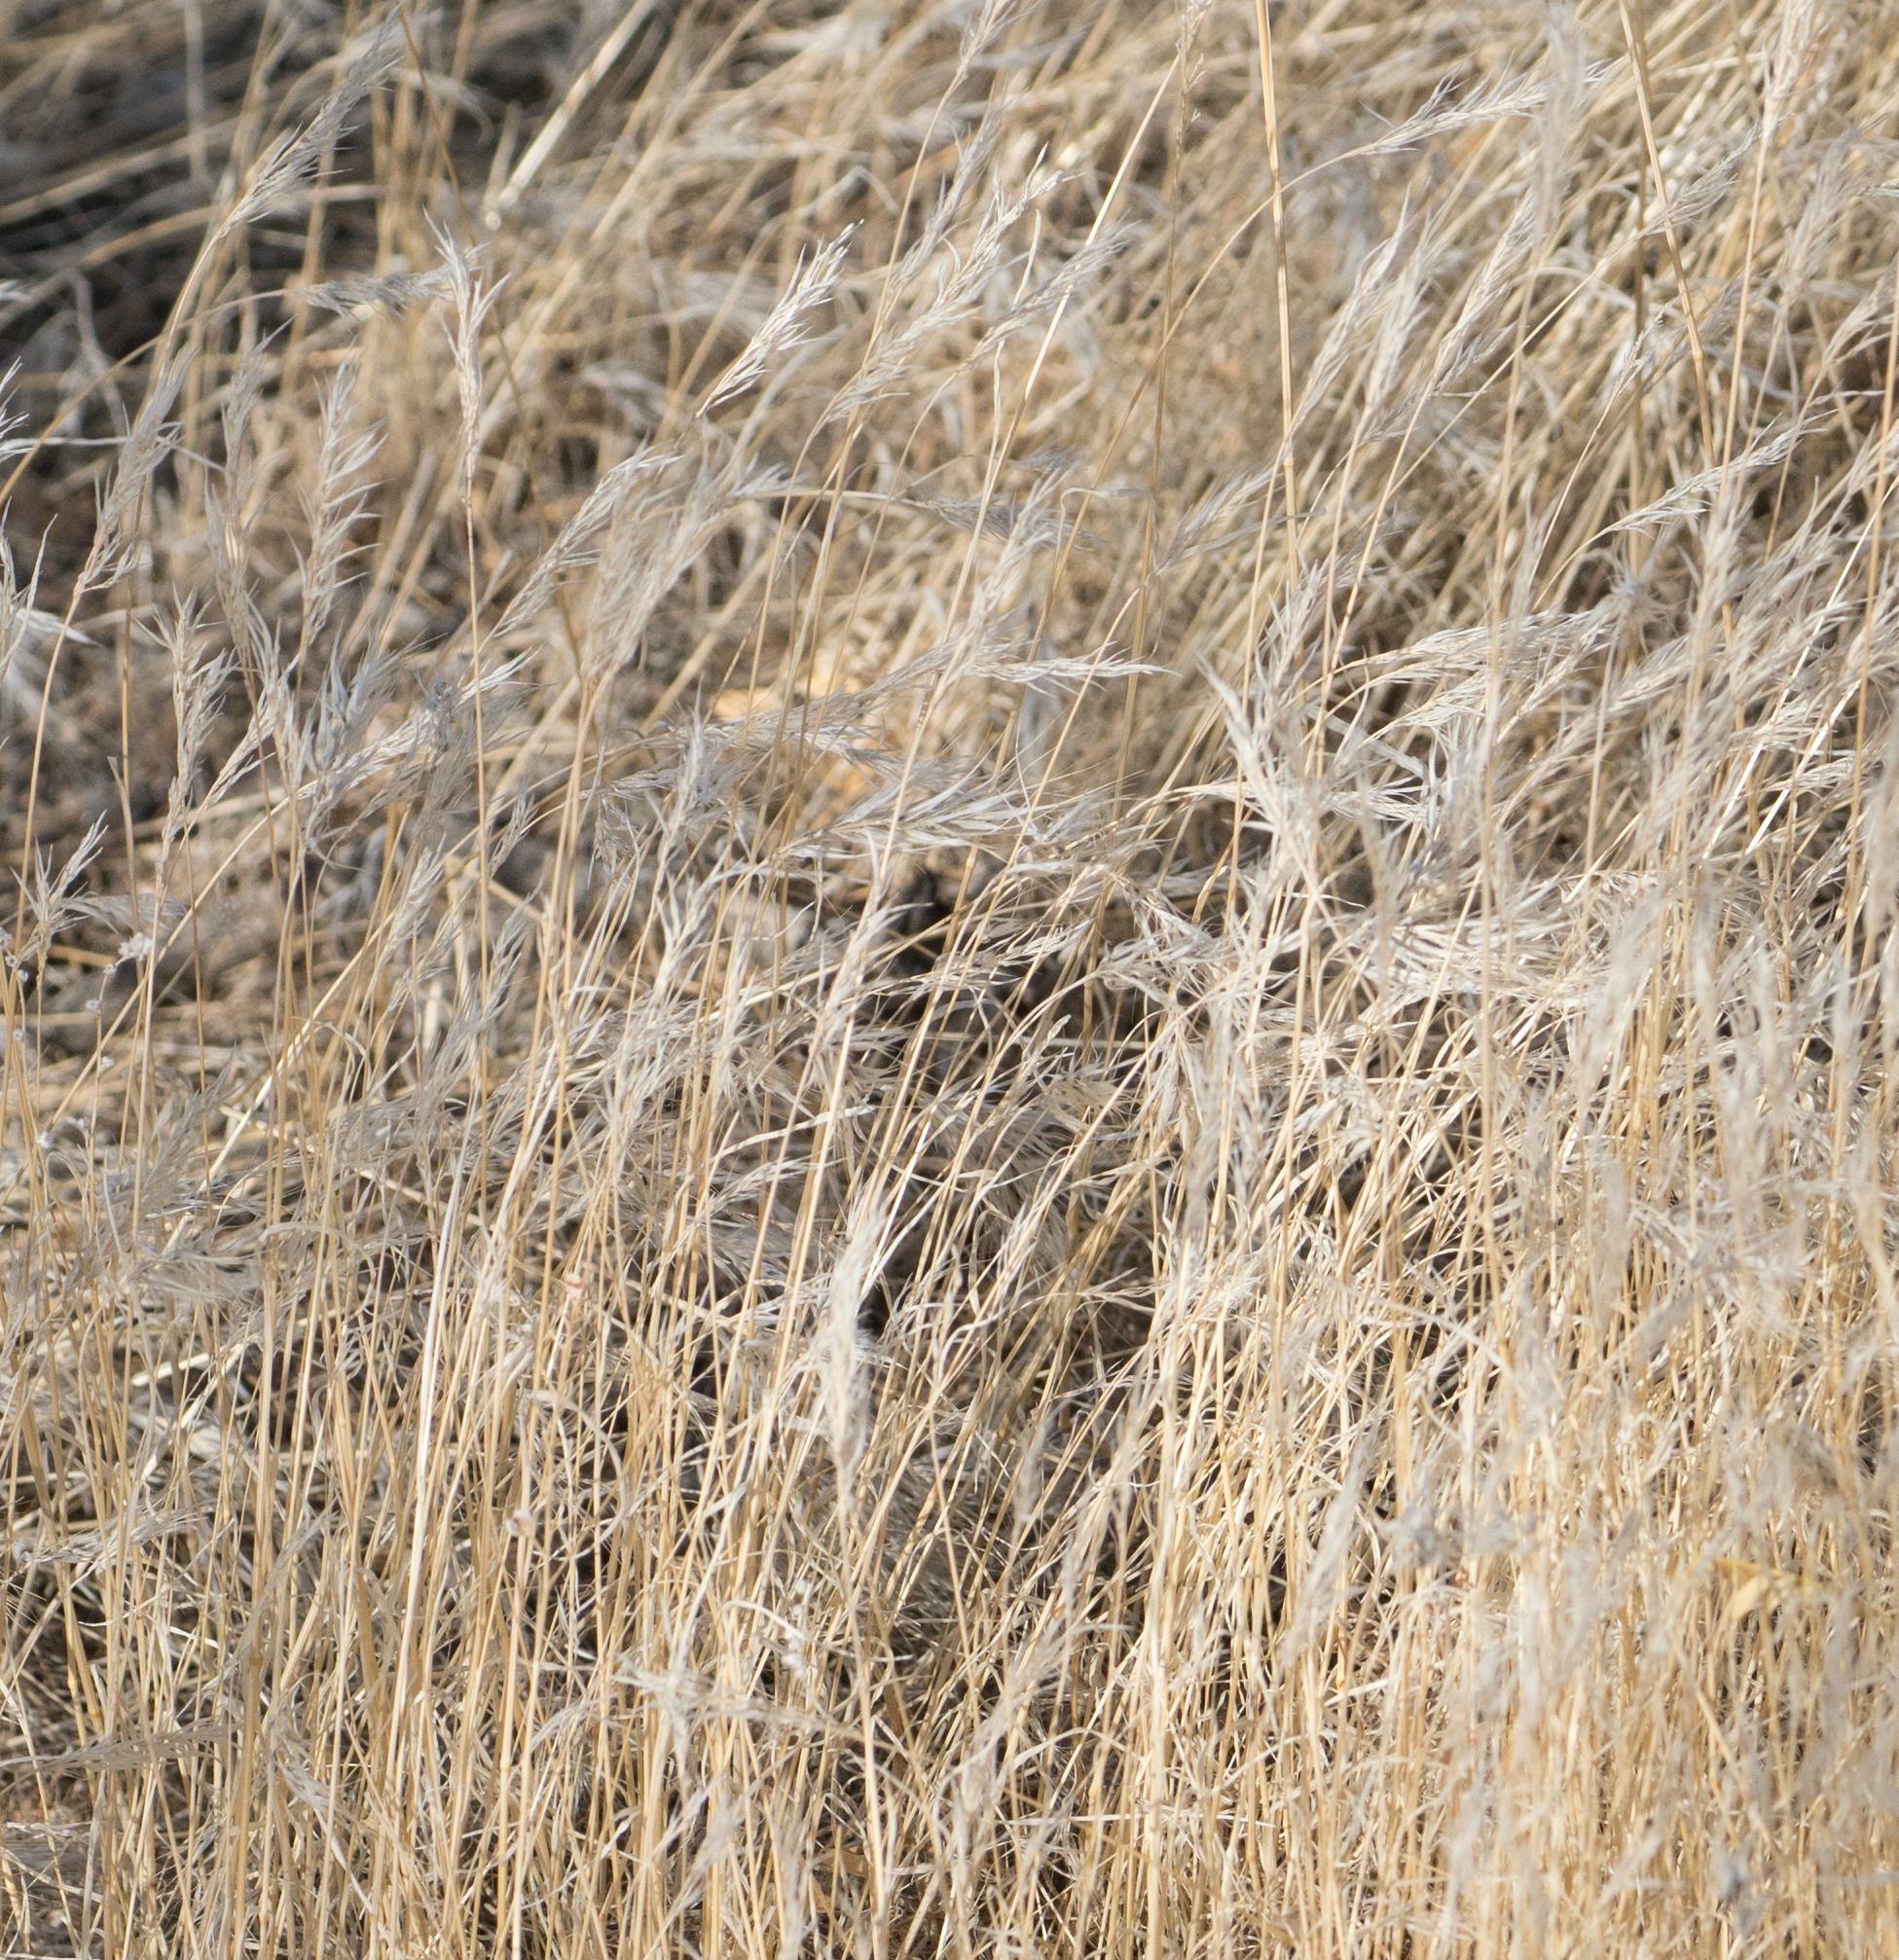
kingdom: Plantae
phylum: Tracheophyta
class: Liliopsida
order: Poales
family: Poaceae
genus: Bromus
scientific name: Bromus rubens
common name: Red brome
